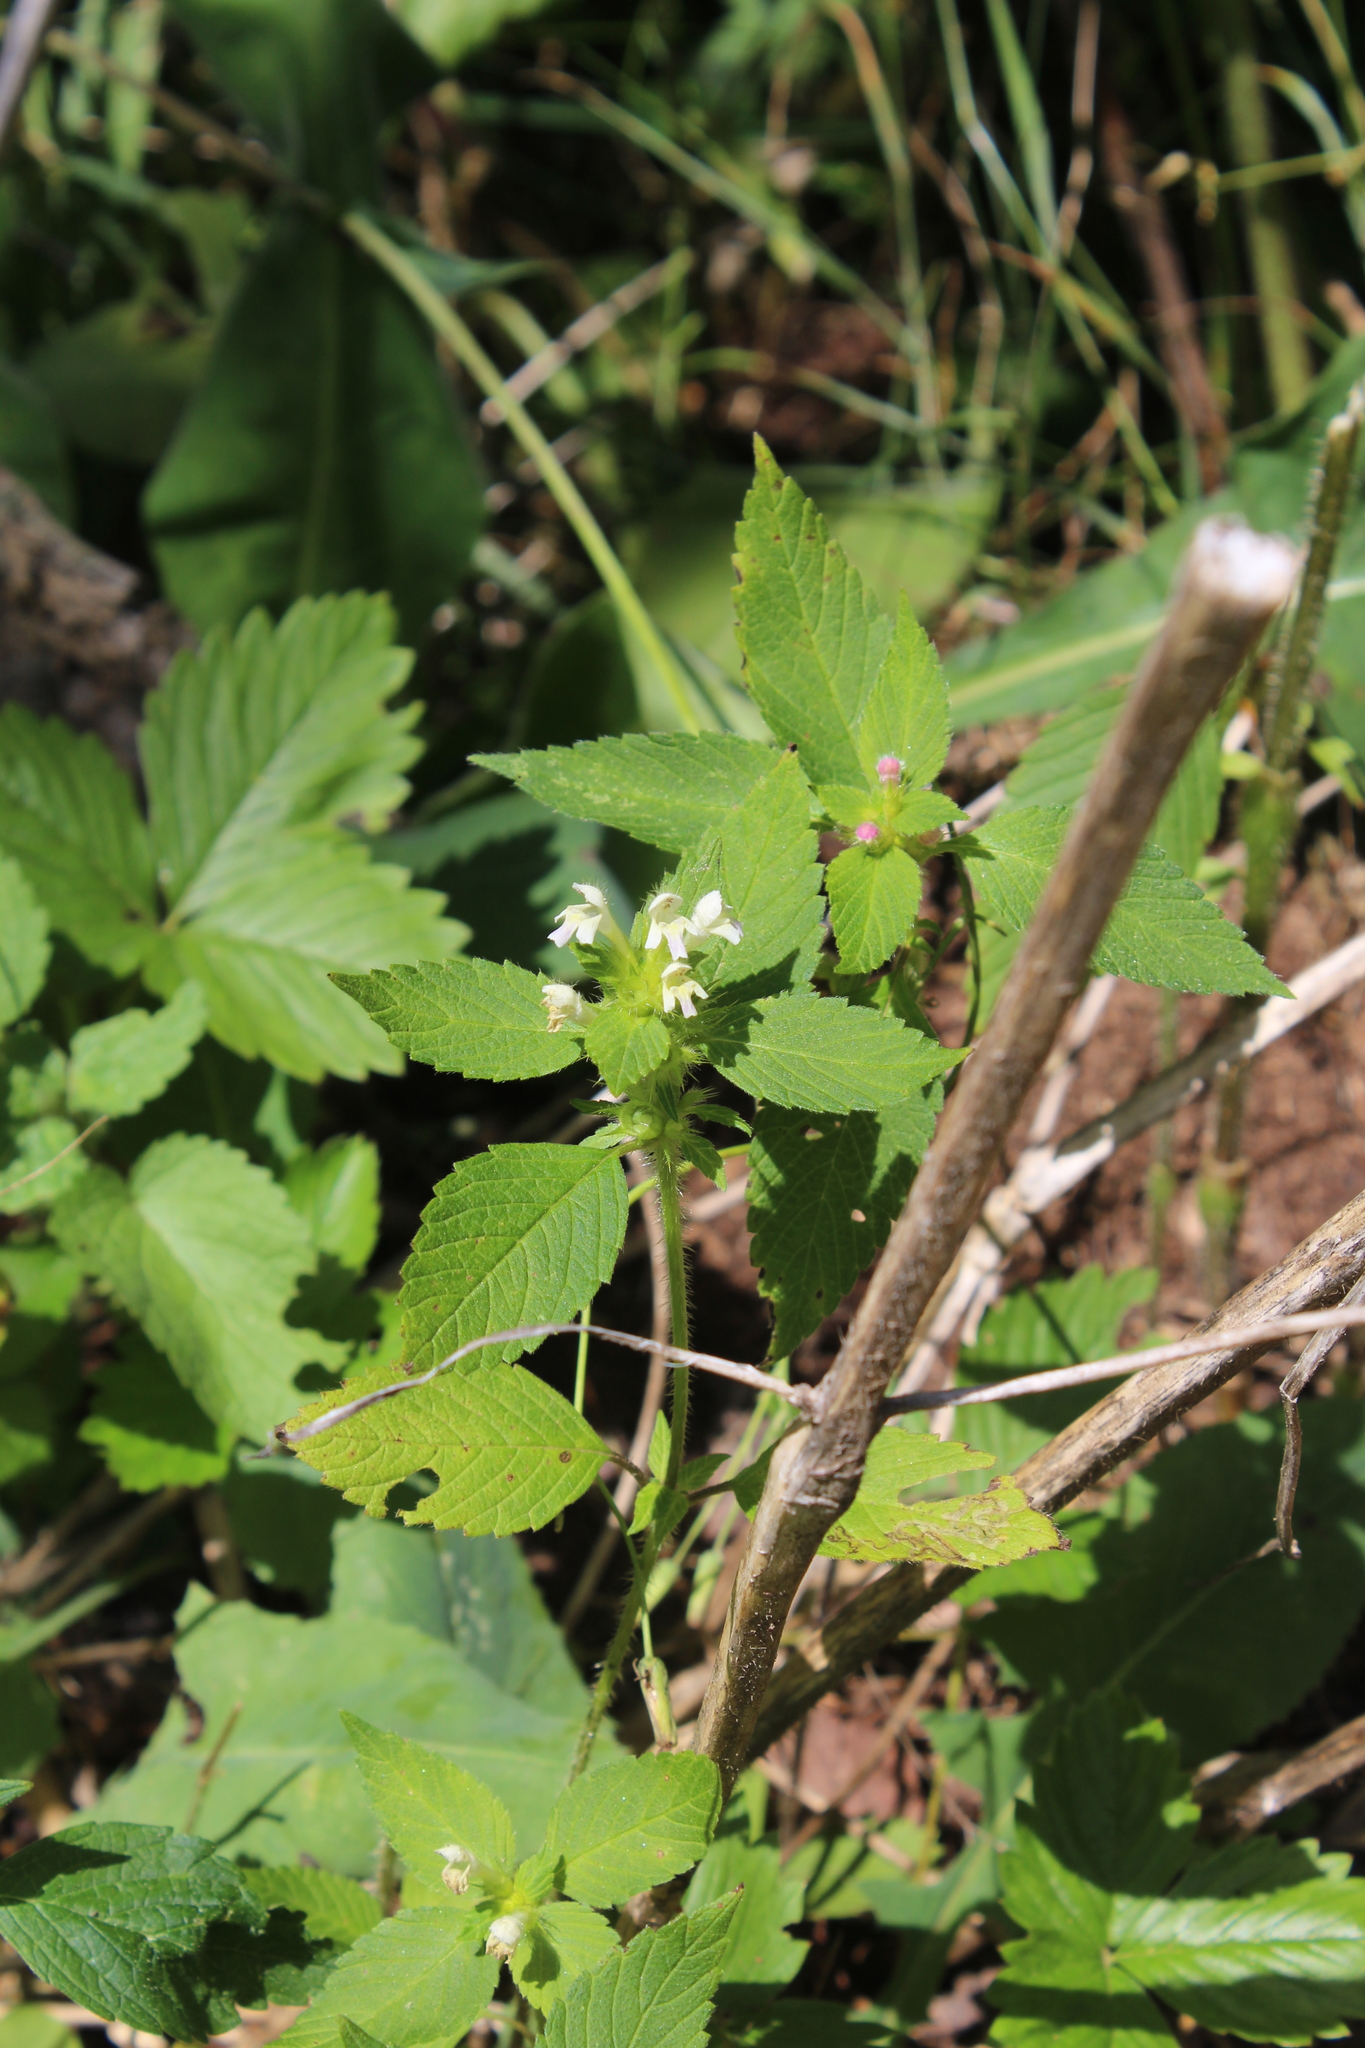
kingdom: Plantae
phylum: Tracheophyta
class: Magnoliopsida
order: Lamiales
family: Lamiaceae
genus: Galeopsis
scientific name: Galeopsis bifida
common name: Bifid hemp-nettle
